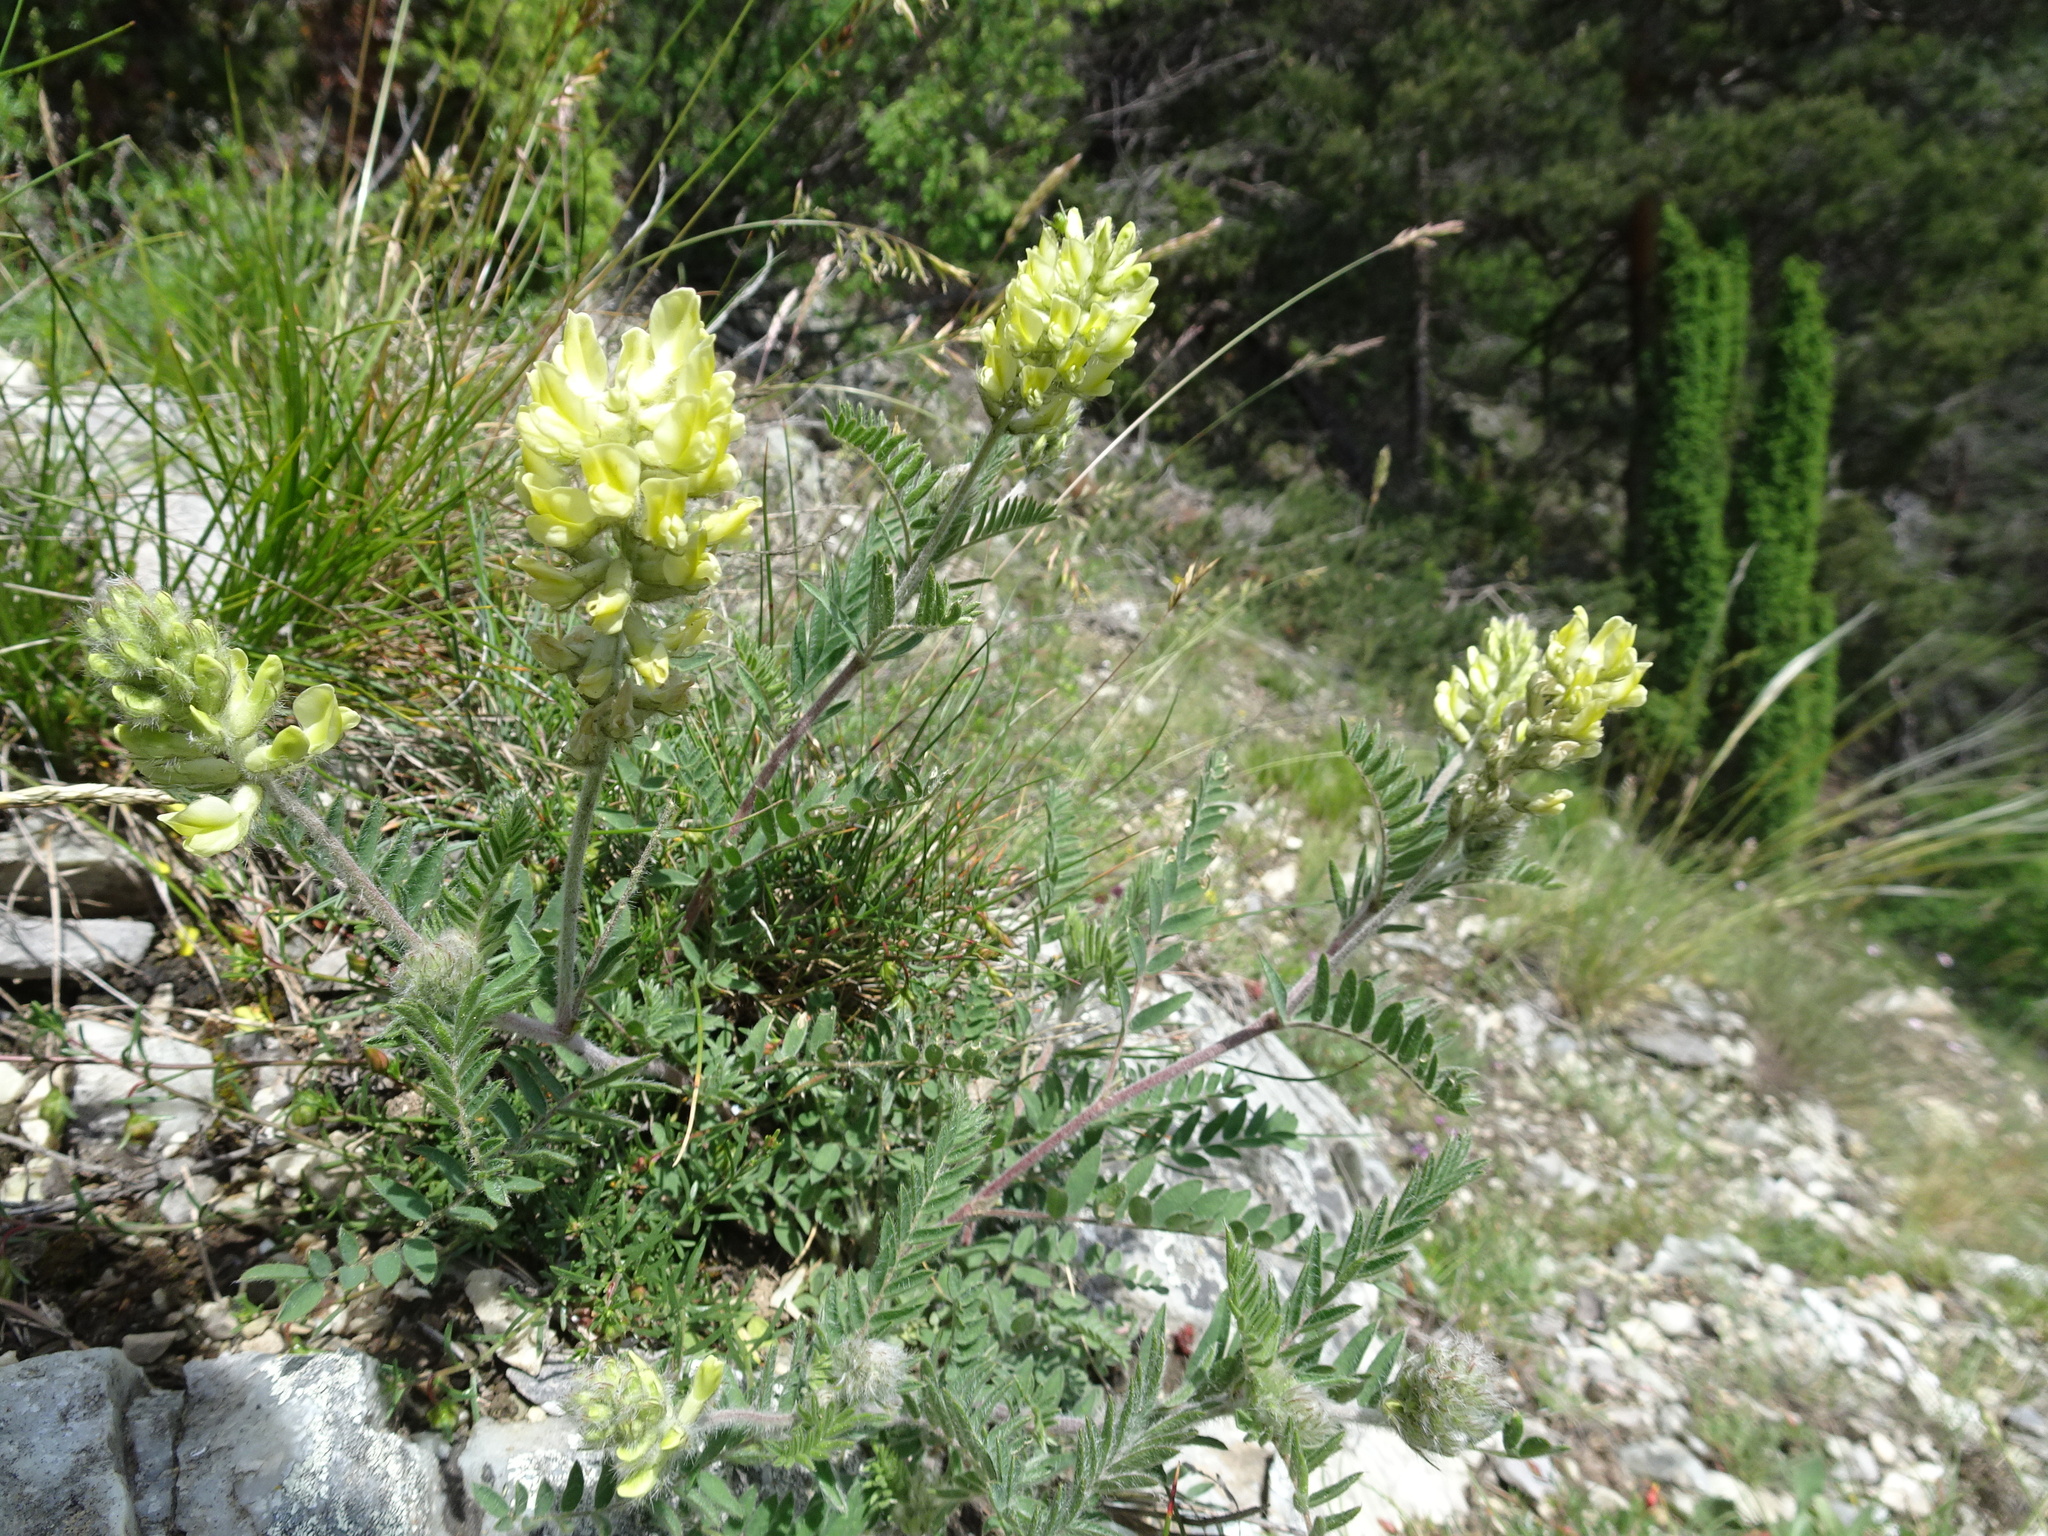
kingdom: Plantae
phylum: Tracheophyta
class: Magnoliopsida
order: Fabales
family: Fabaceae
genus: Oxytropis
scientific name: Oxytropis pilosa
